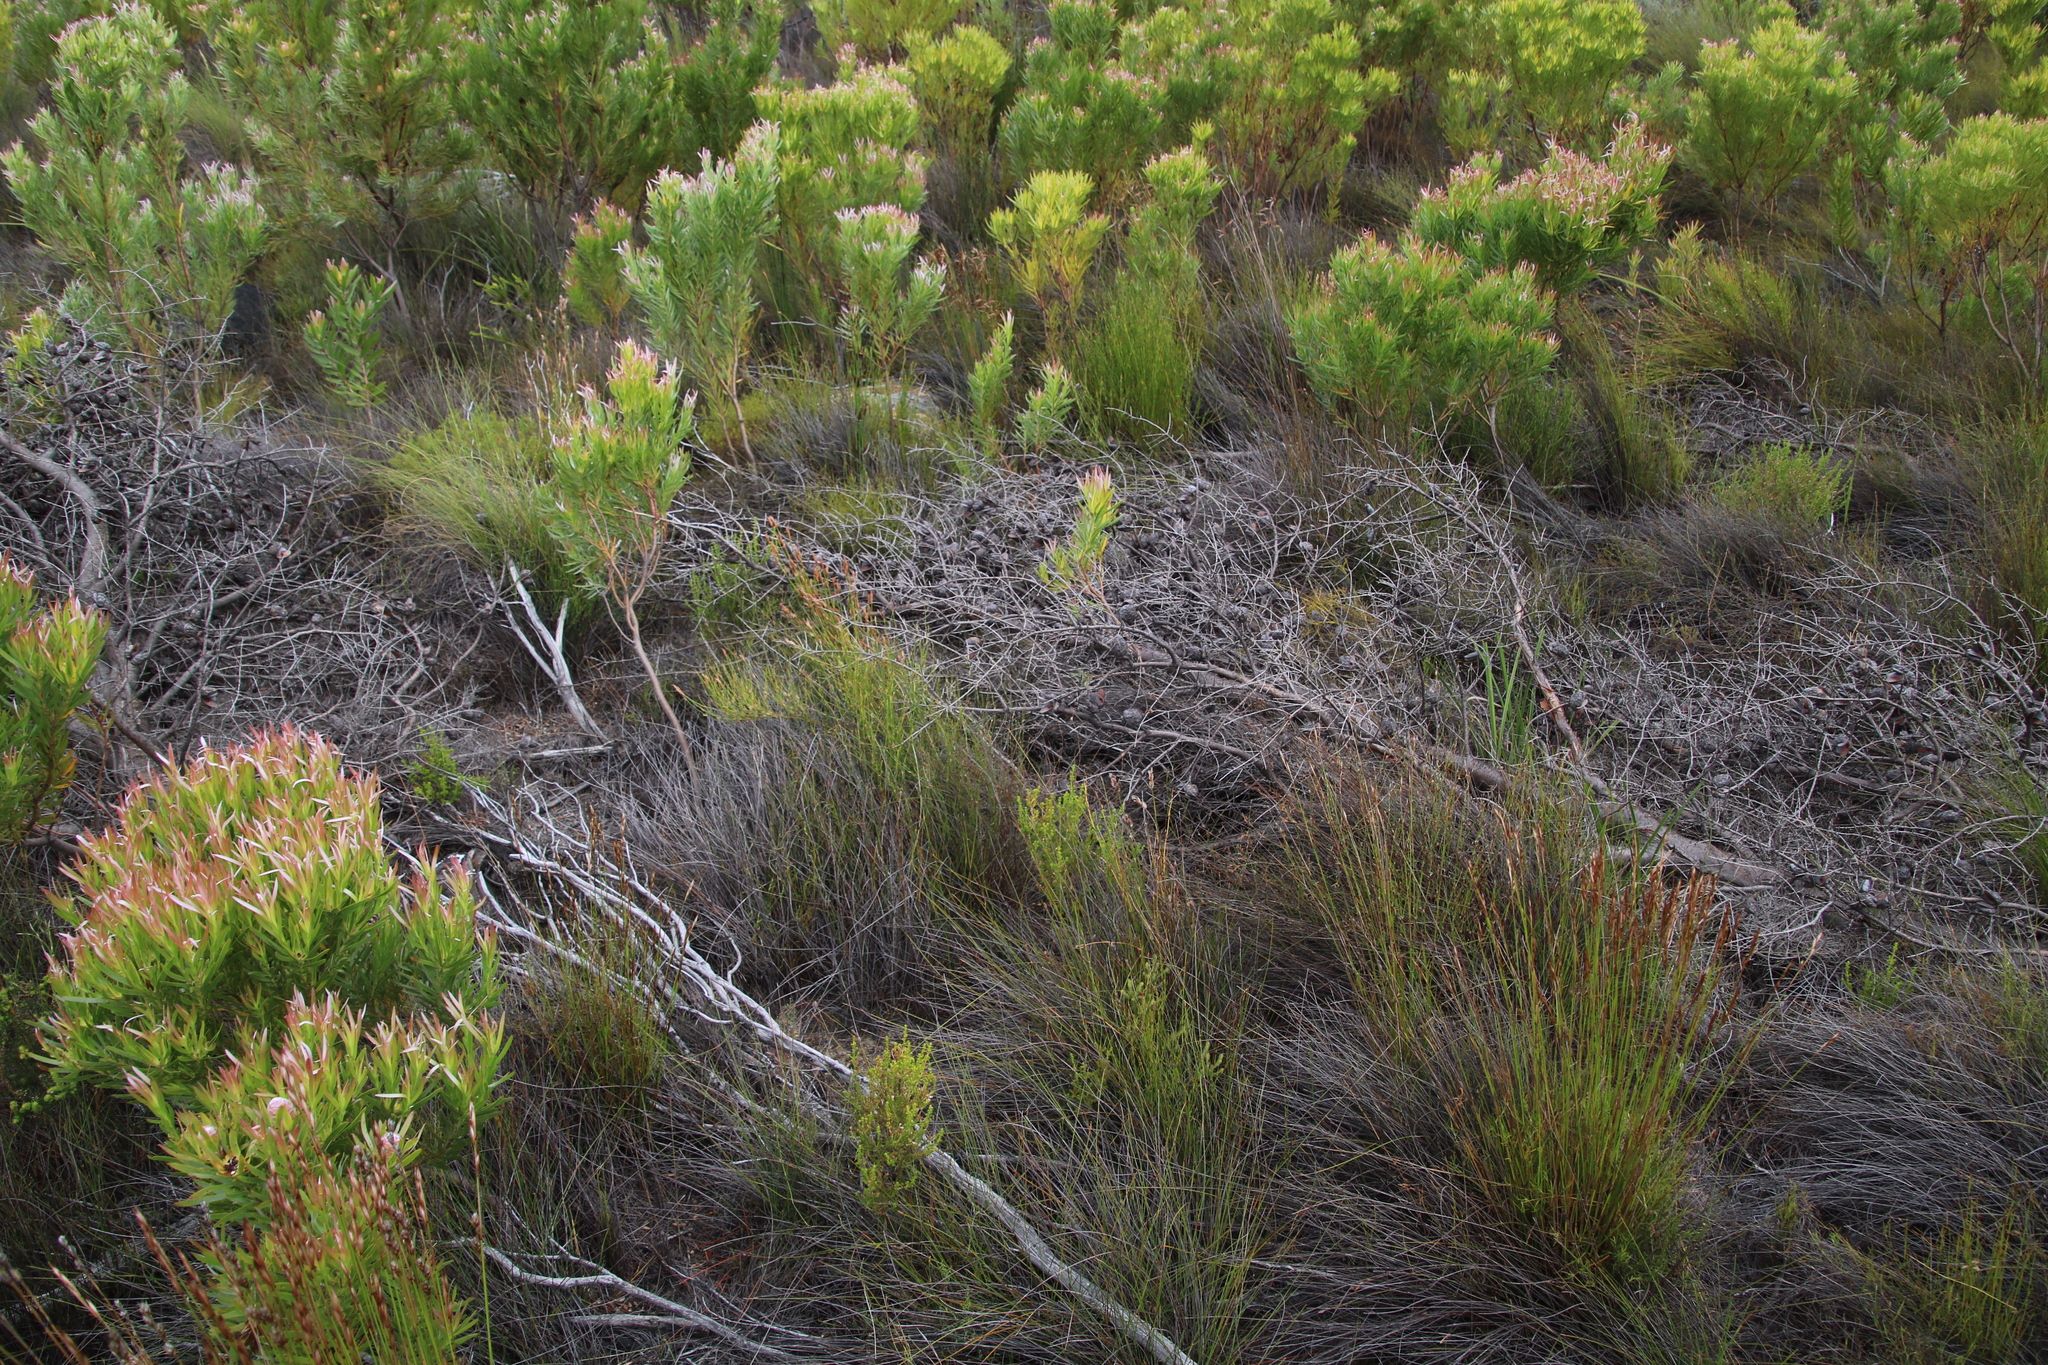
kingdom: Plantae
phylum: Tracheophyta
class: Magnoliopsida
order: Proteales
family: Proteaceae
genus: Hakea
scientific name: Hakea sericea
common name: Needle bush
